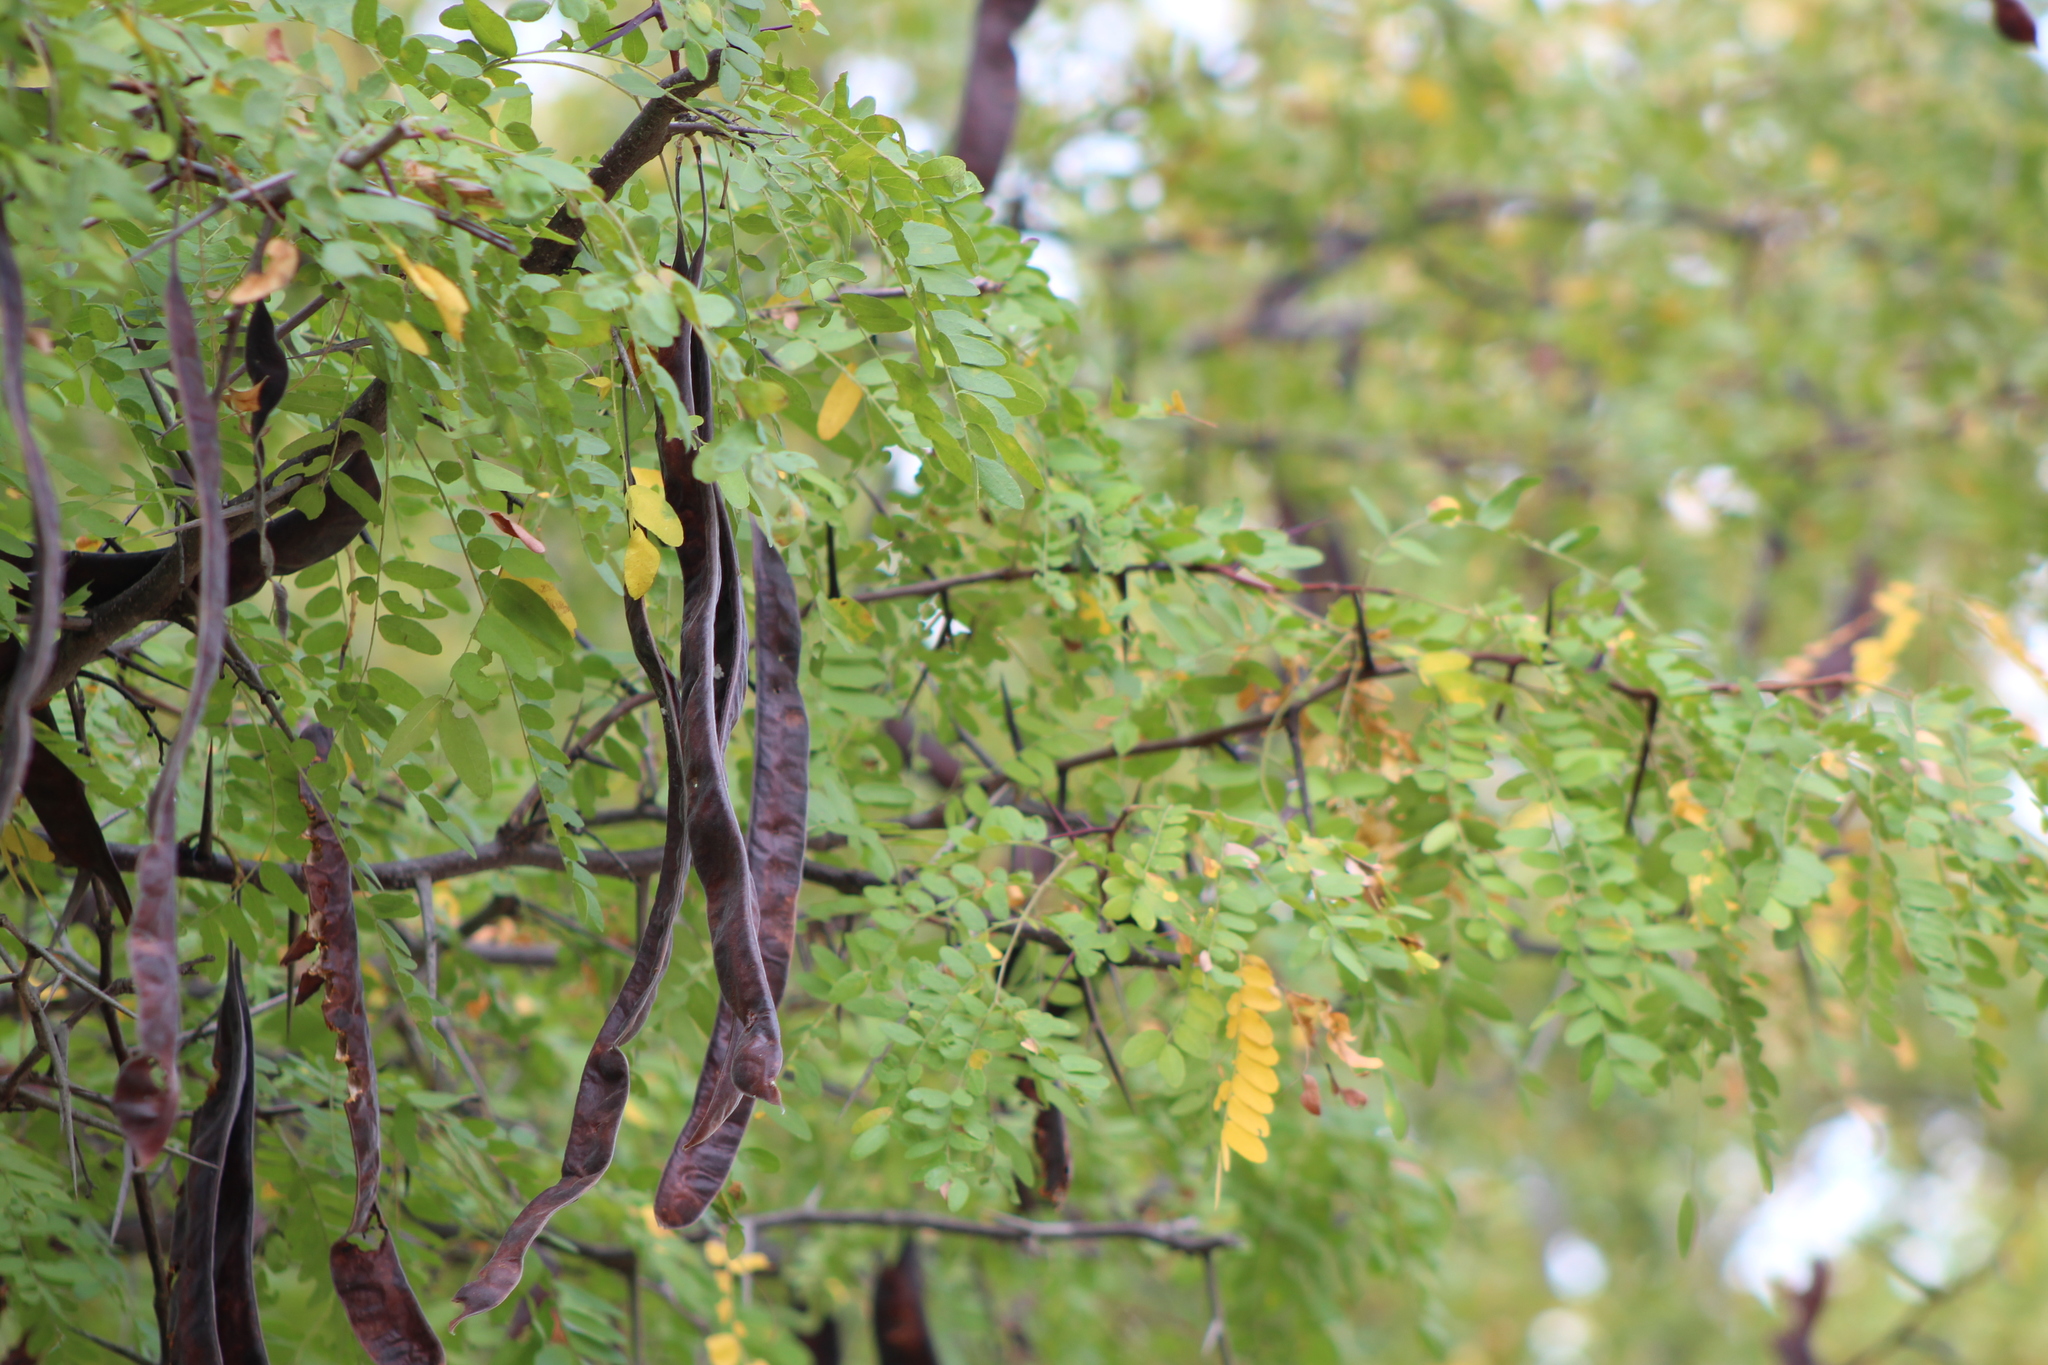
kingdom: Plantae
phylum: Tracheophyta
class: Magnoliopsida
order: Fabales
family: Fabaceae
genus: Gleditsia
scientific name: Gleditsia triacanthos
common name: Common honeylocust
